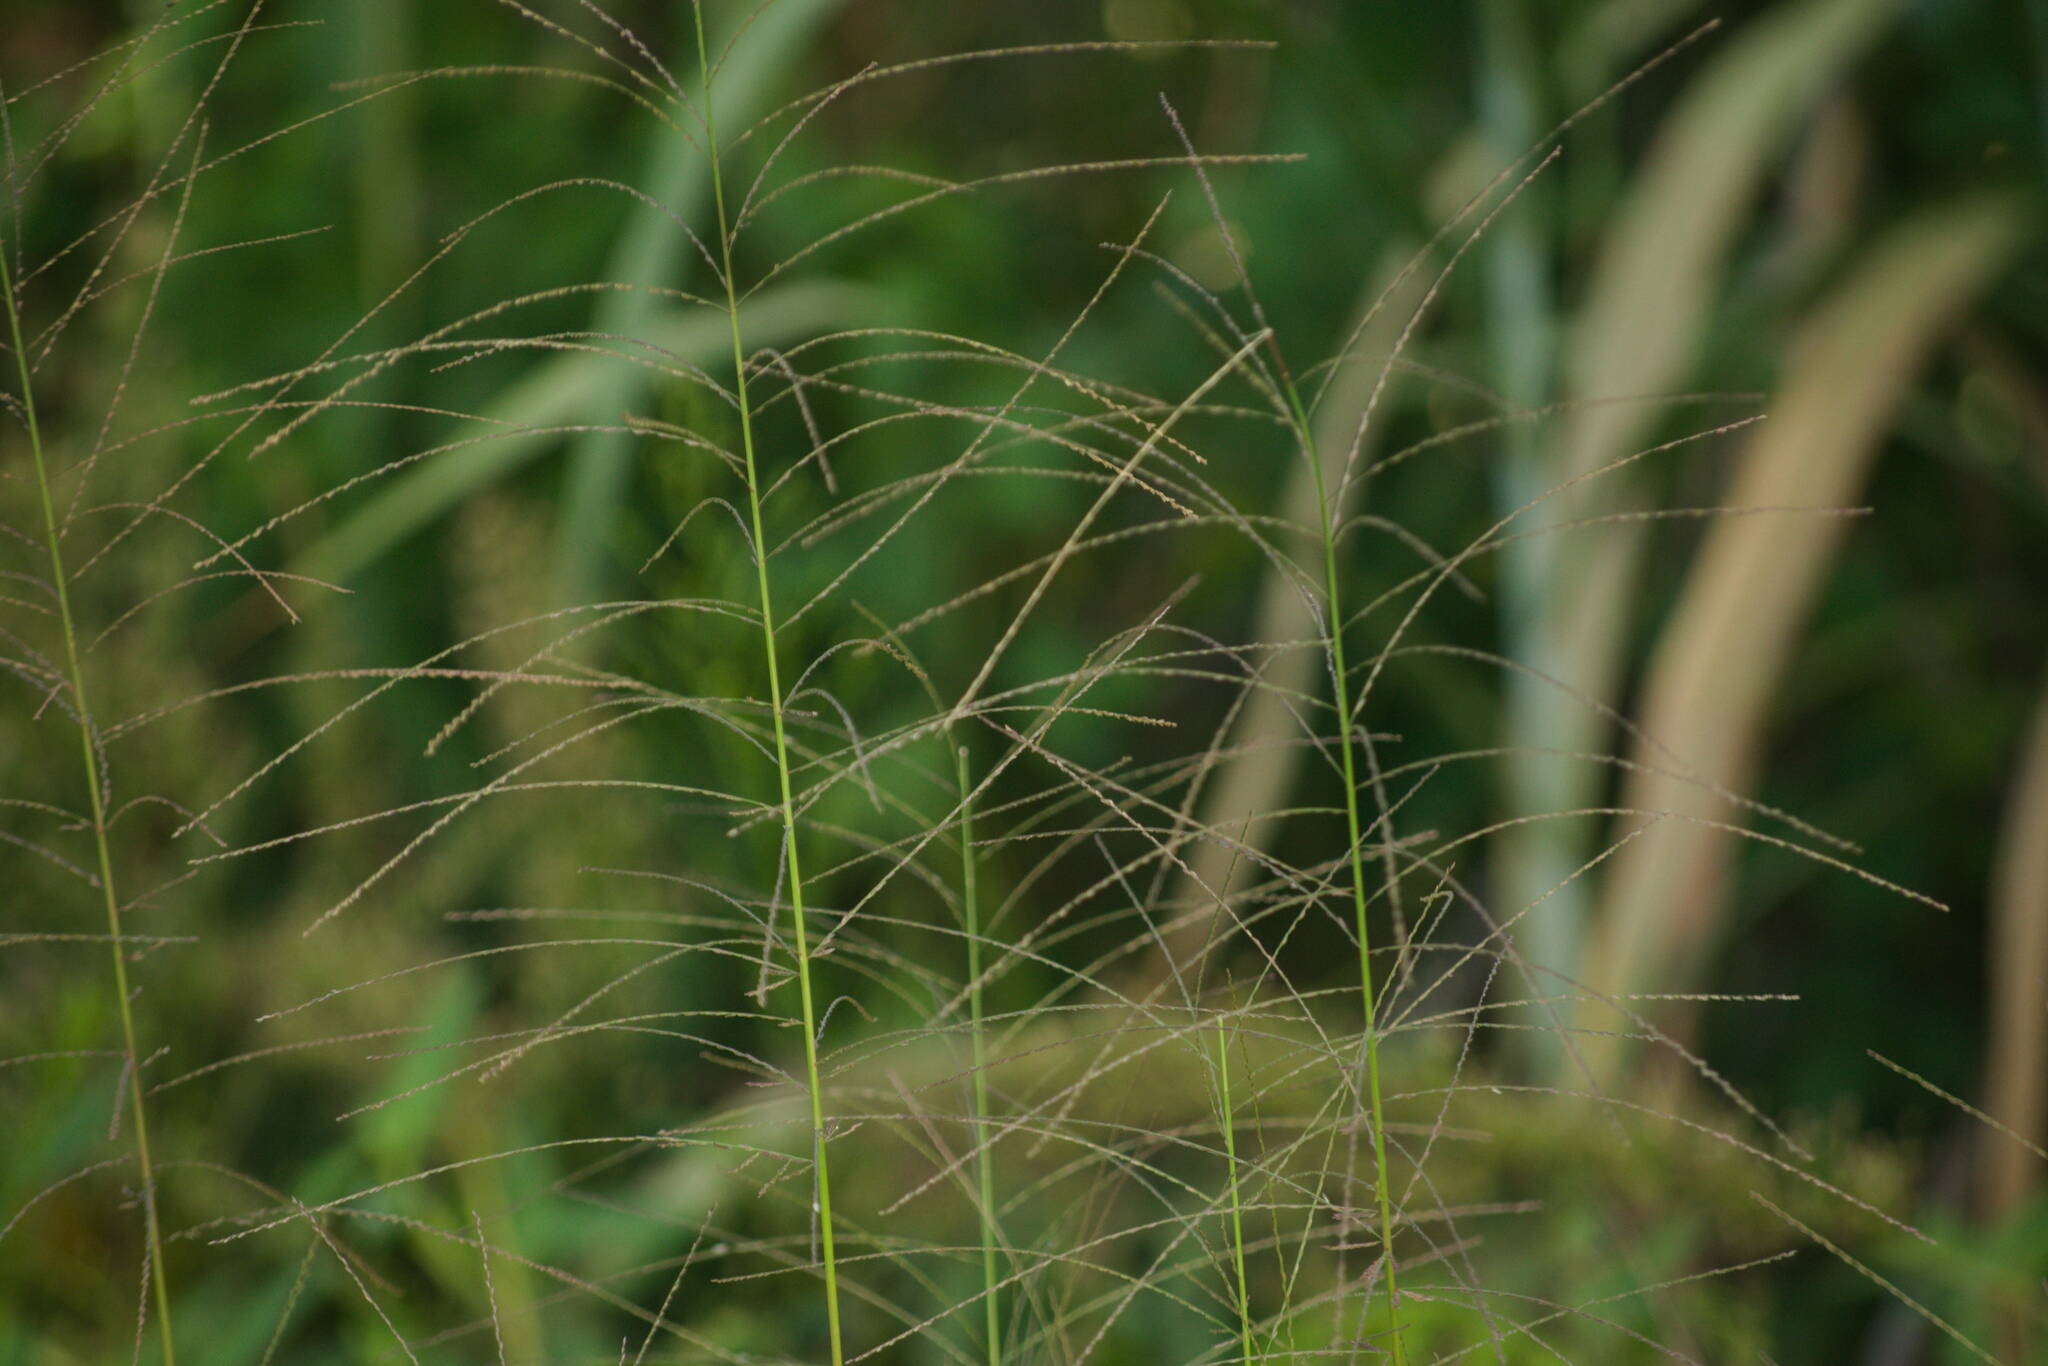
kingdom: Plantae
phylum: Tracheophyta
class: Liliopsida
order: Poales
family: Poaceae
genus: Leptochloa
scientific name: Leptochloa panicea
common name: Mucronate sprangletop
